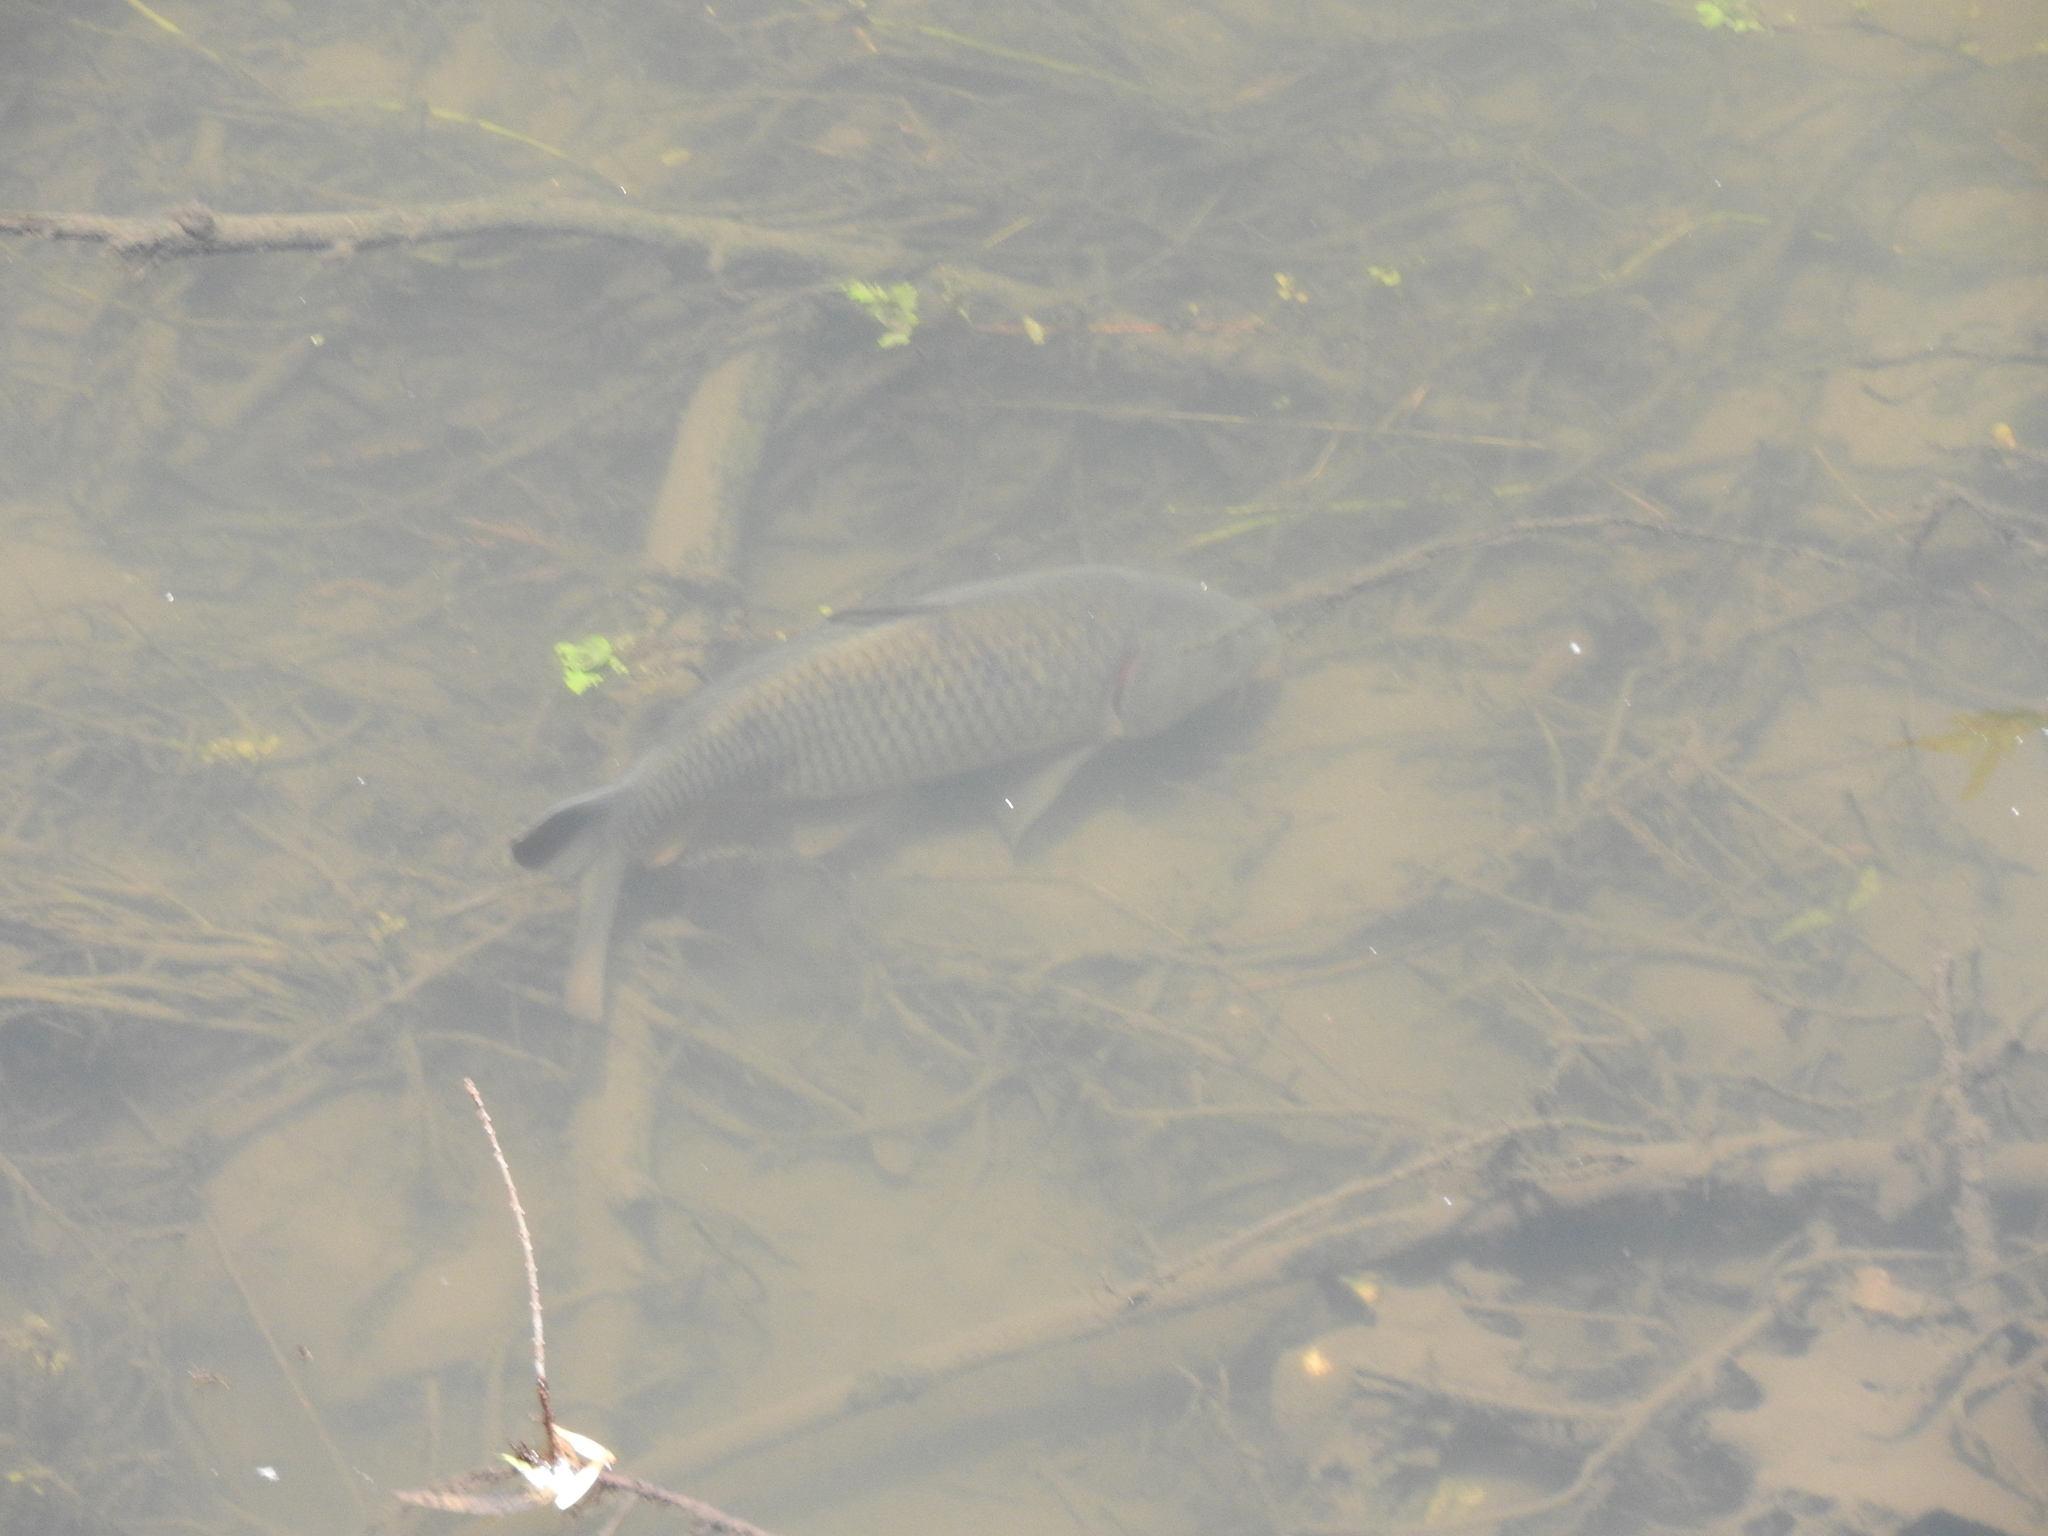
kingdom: Animalia
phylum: Chordata
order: Cypriniformes
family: Cyprinidae
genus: Cyprinus
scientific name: Cyprinus carpio
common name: Common carp
